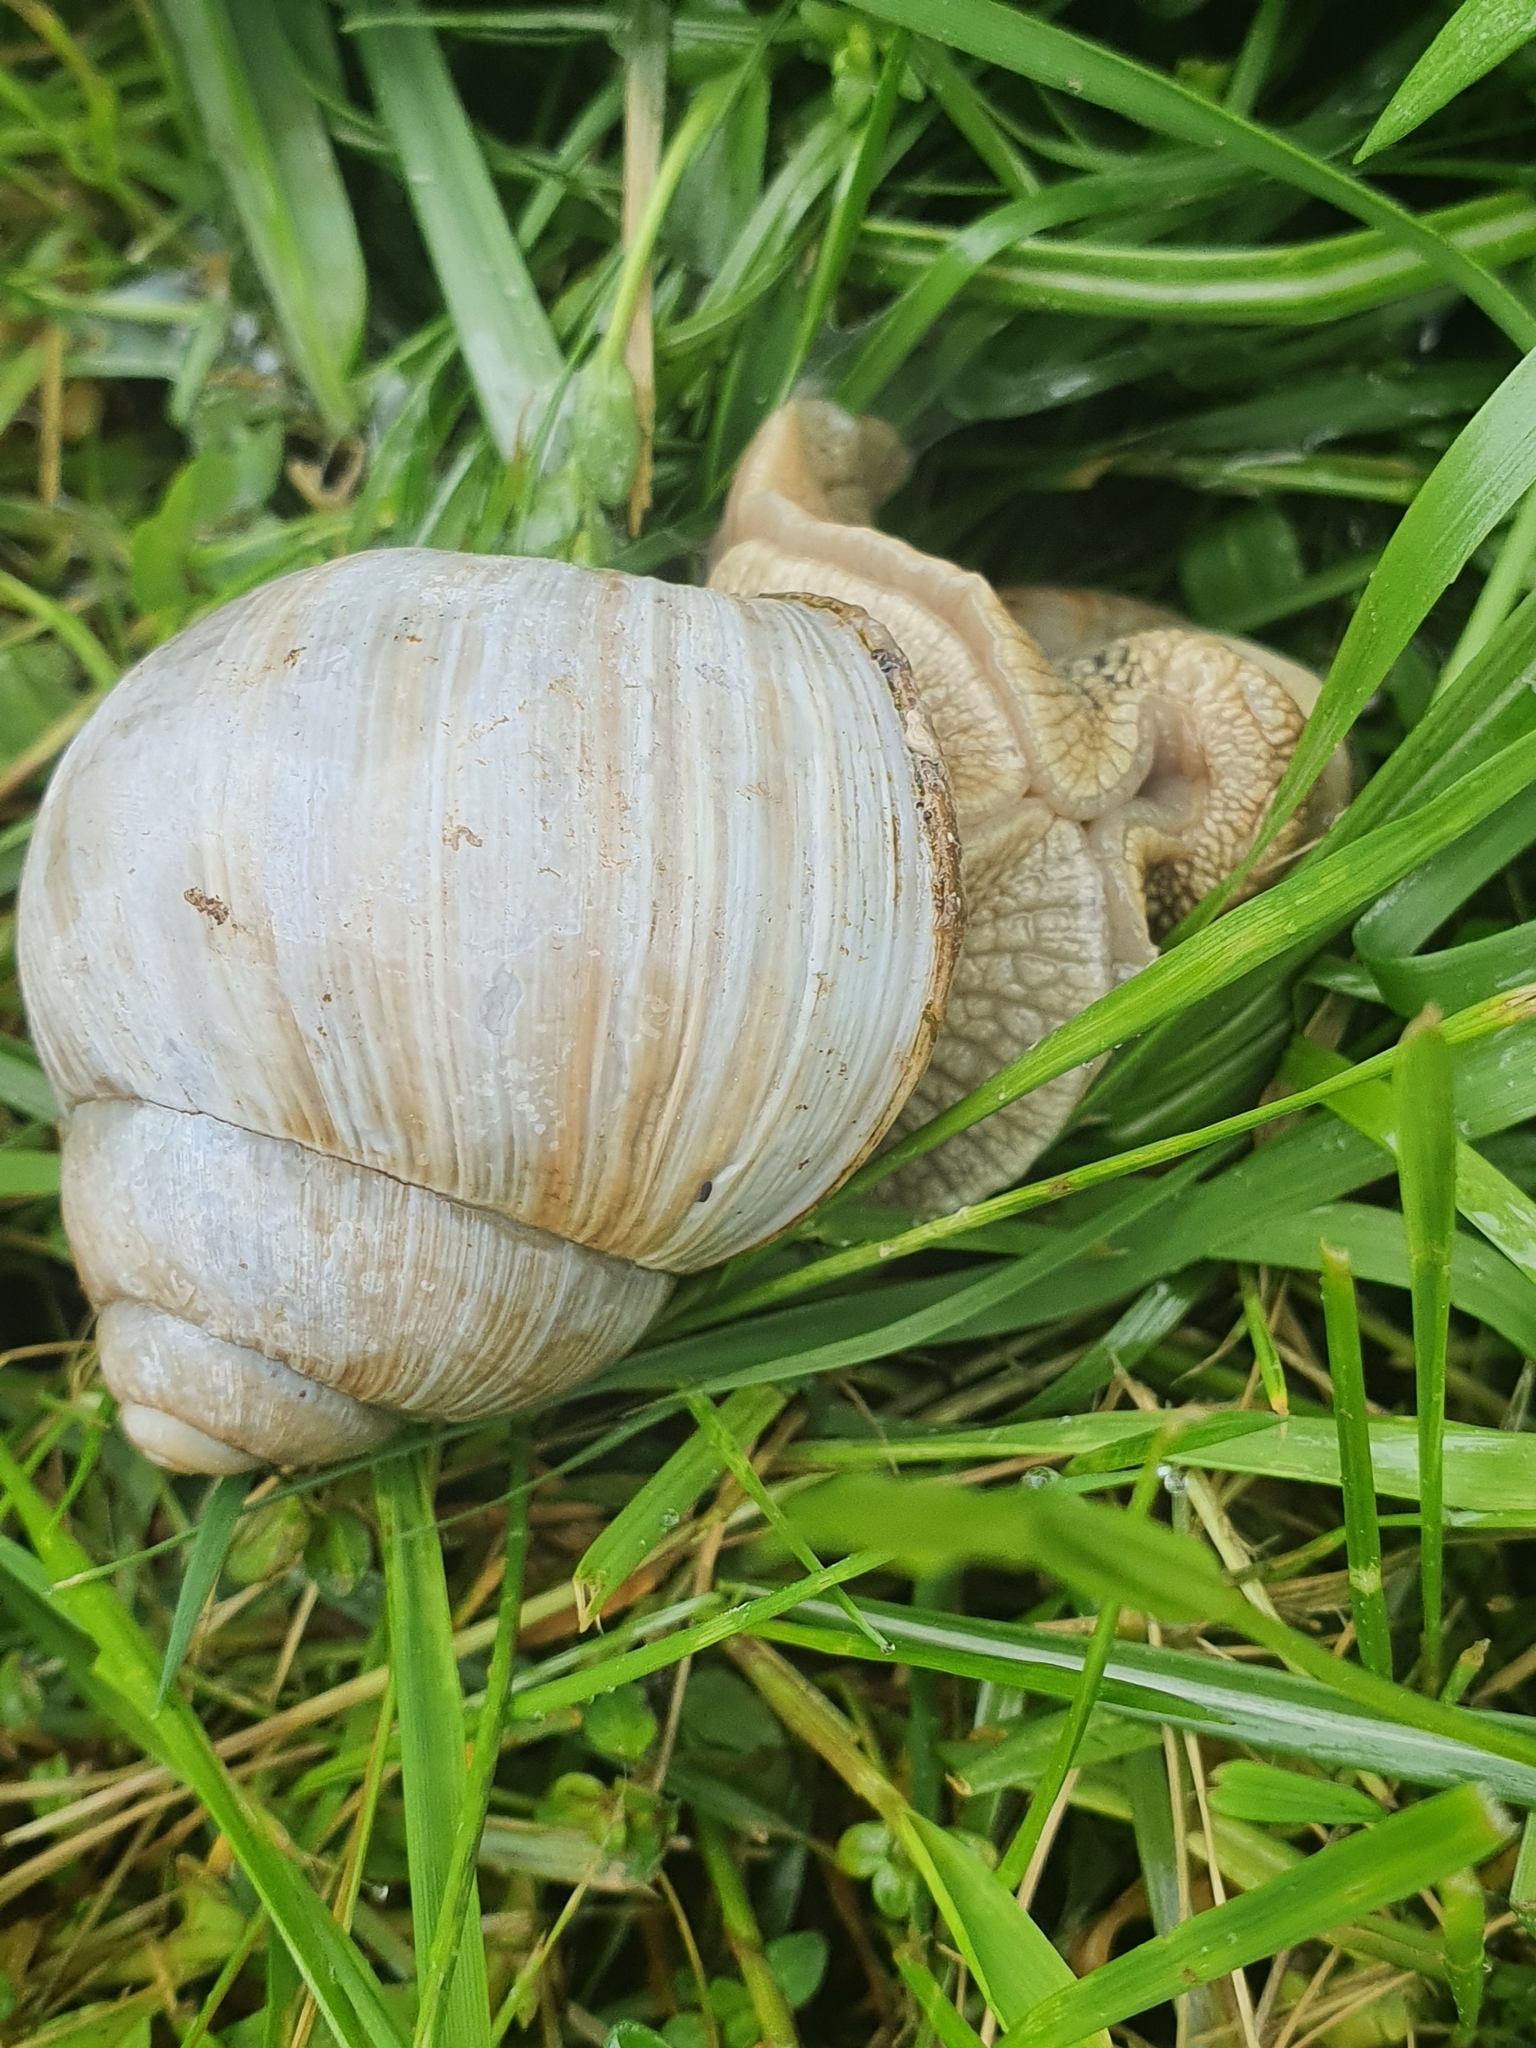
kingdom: Animalia
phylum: Mollusca
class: Gastropoda
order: Stylommatophora
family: Helicidae
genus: Helix
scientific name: Helix pomatia
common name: Roman snail
